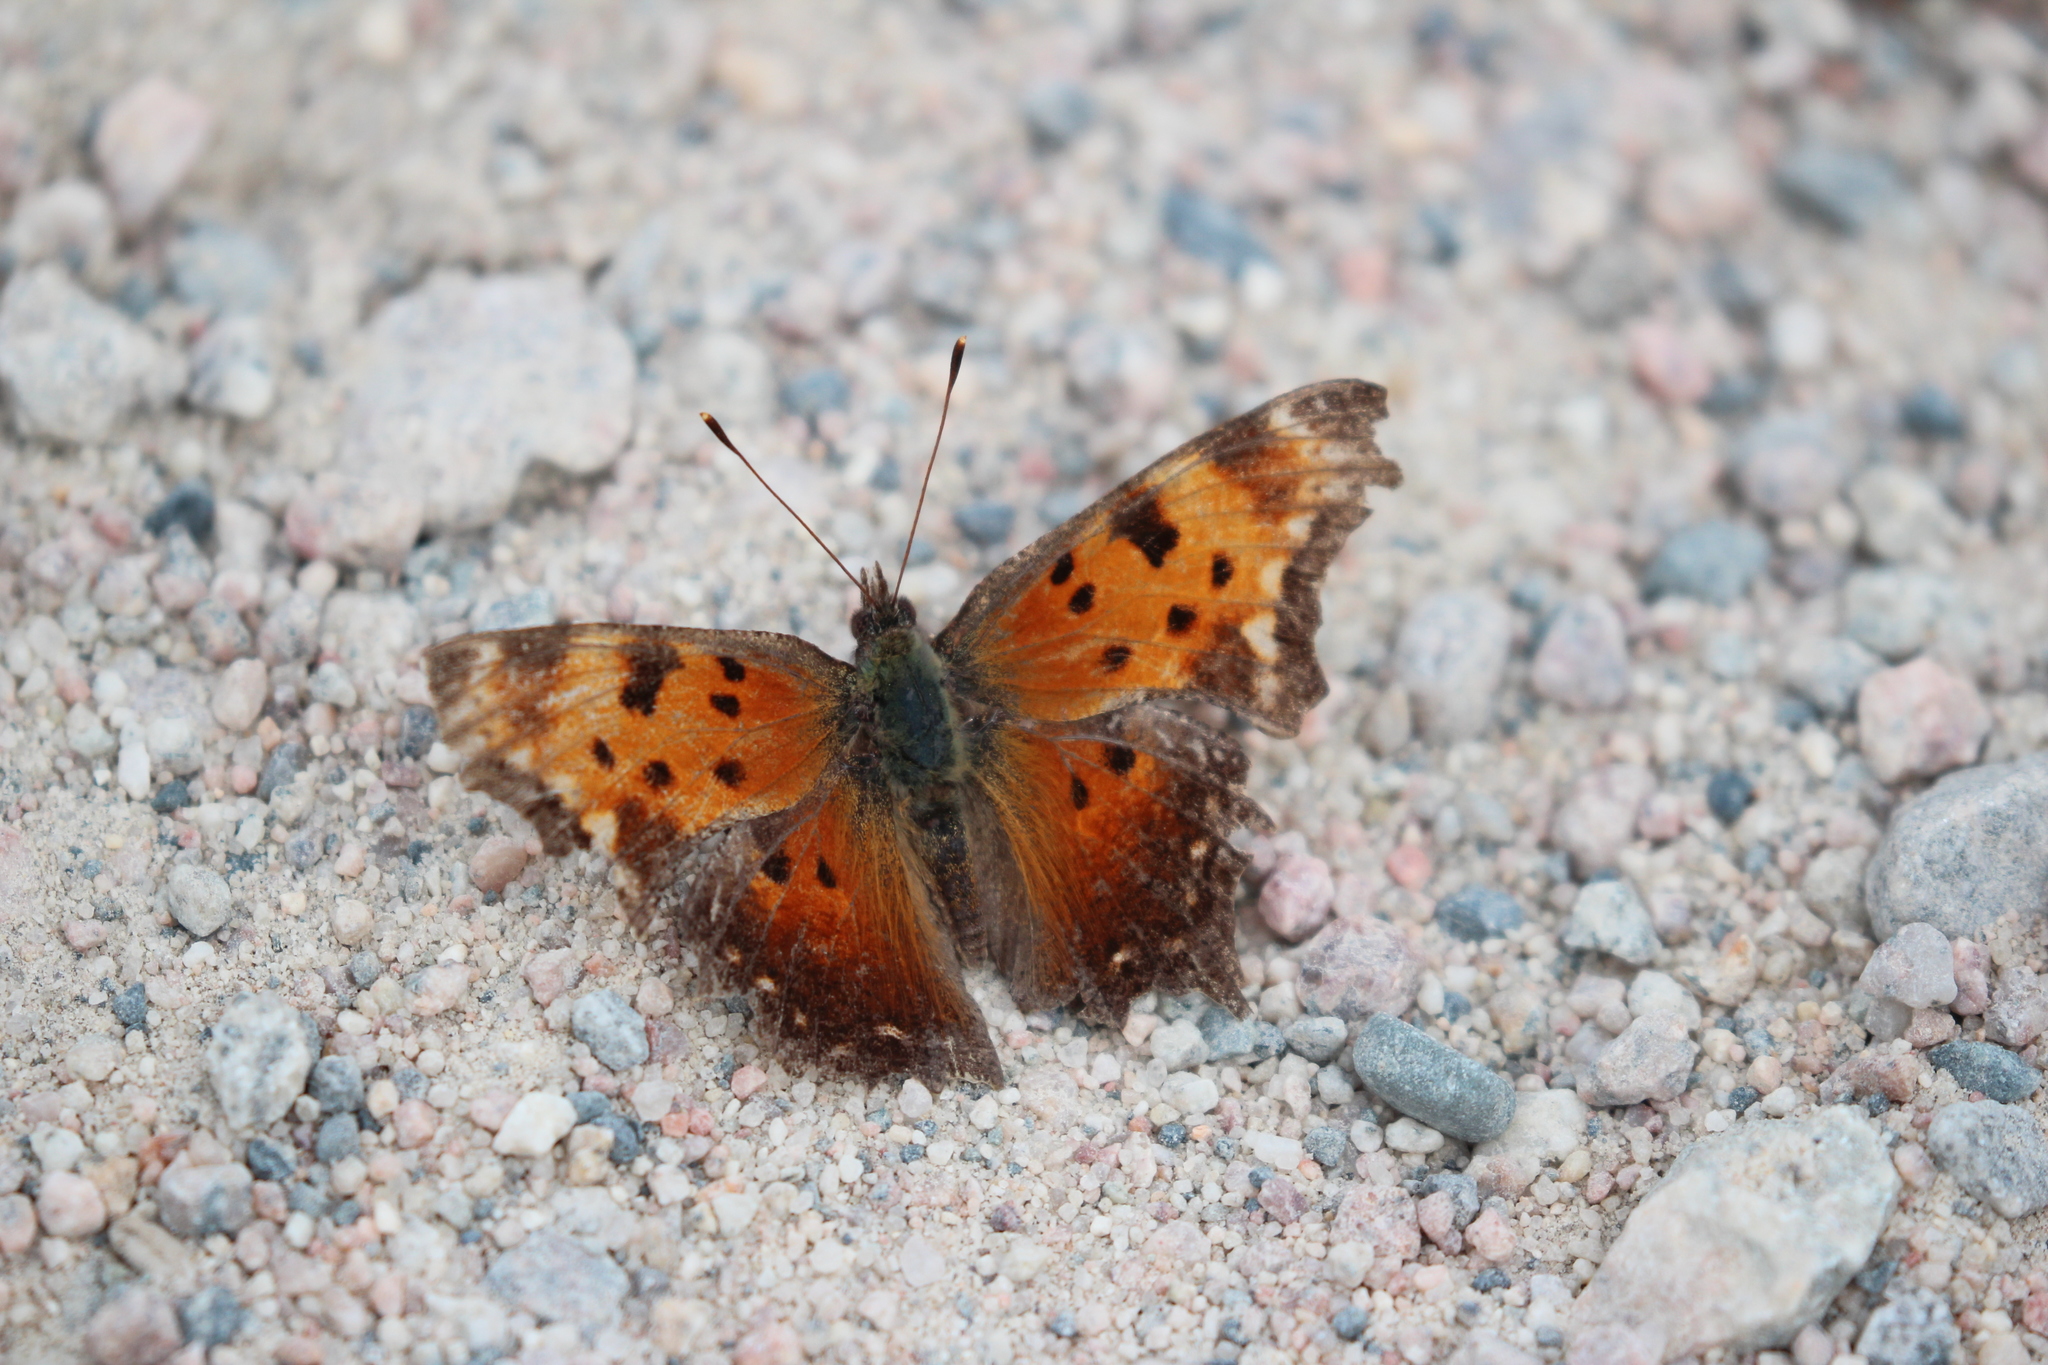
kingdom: Animalia
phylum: Arthropoda
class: Insecta
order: Lepidoptera
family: Nymphalidae
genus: Polygonia
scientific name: Polygonia progne
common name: Gray comma
